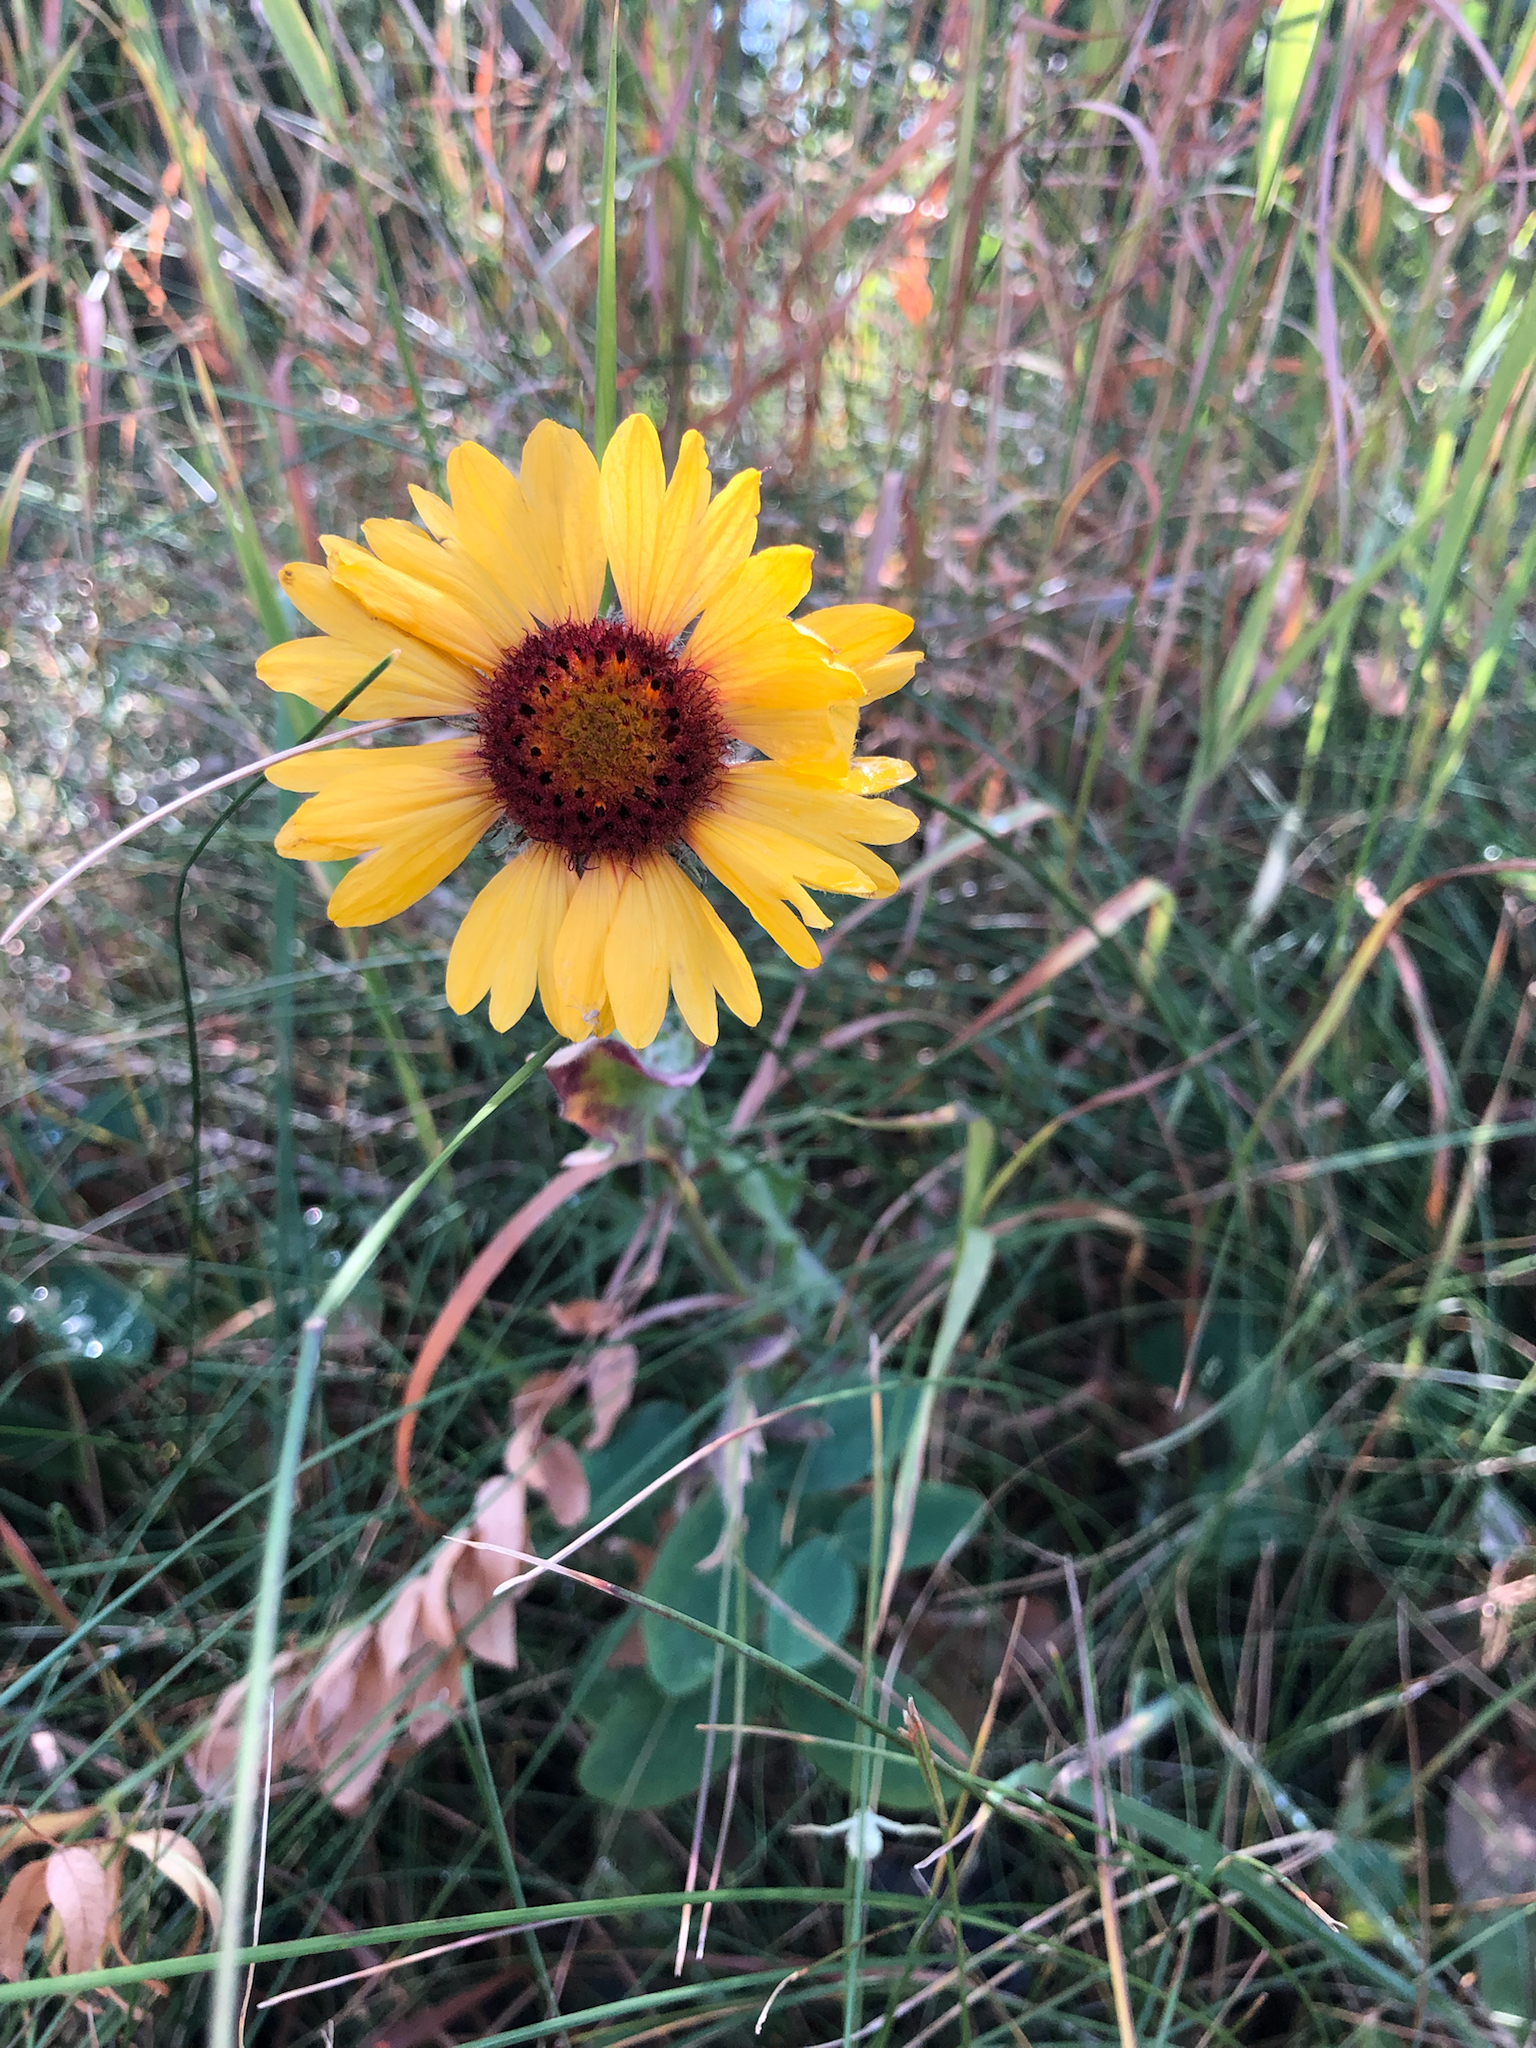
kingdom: Plantae
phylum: Tracheophyta
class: Magnoliopsida
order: Asterales
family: Asteraceae
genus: Gaillardia
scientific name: Gaillardia aristata
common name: Blanket-flower
